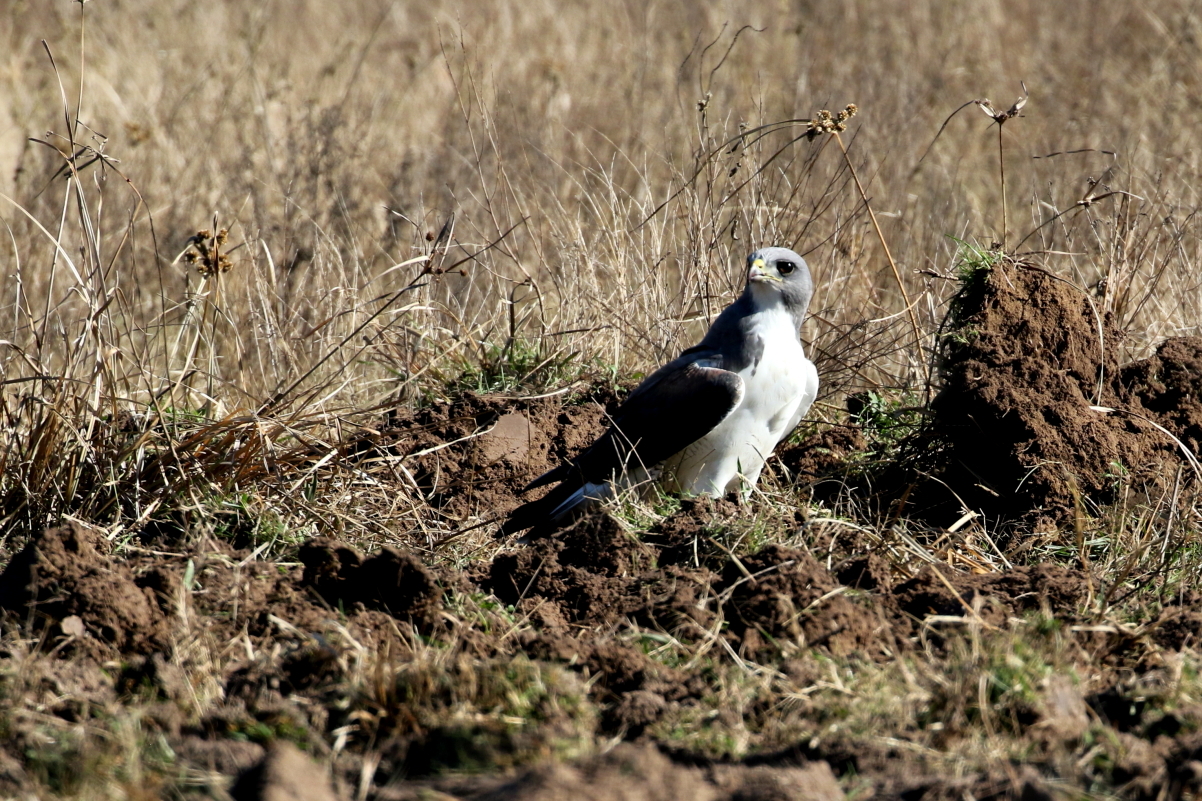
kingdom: Animalia
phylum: Chordata
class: Aves
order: Accipitriformes
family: Accipitridae
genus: Buteo
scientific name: Buteo albicaudatus
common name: White-tailed hawk
